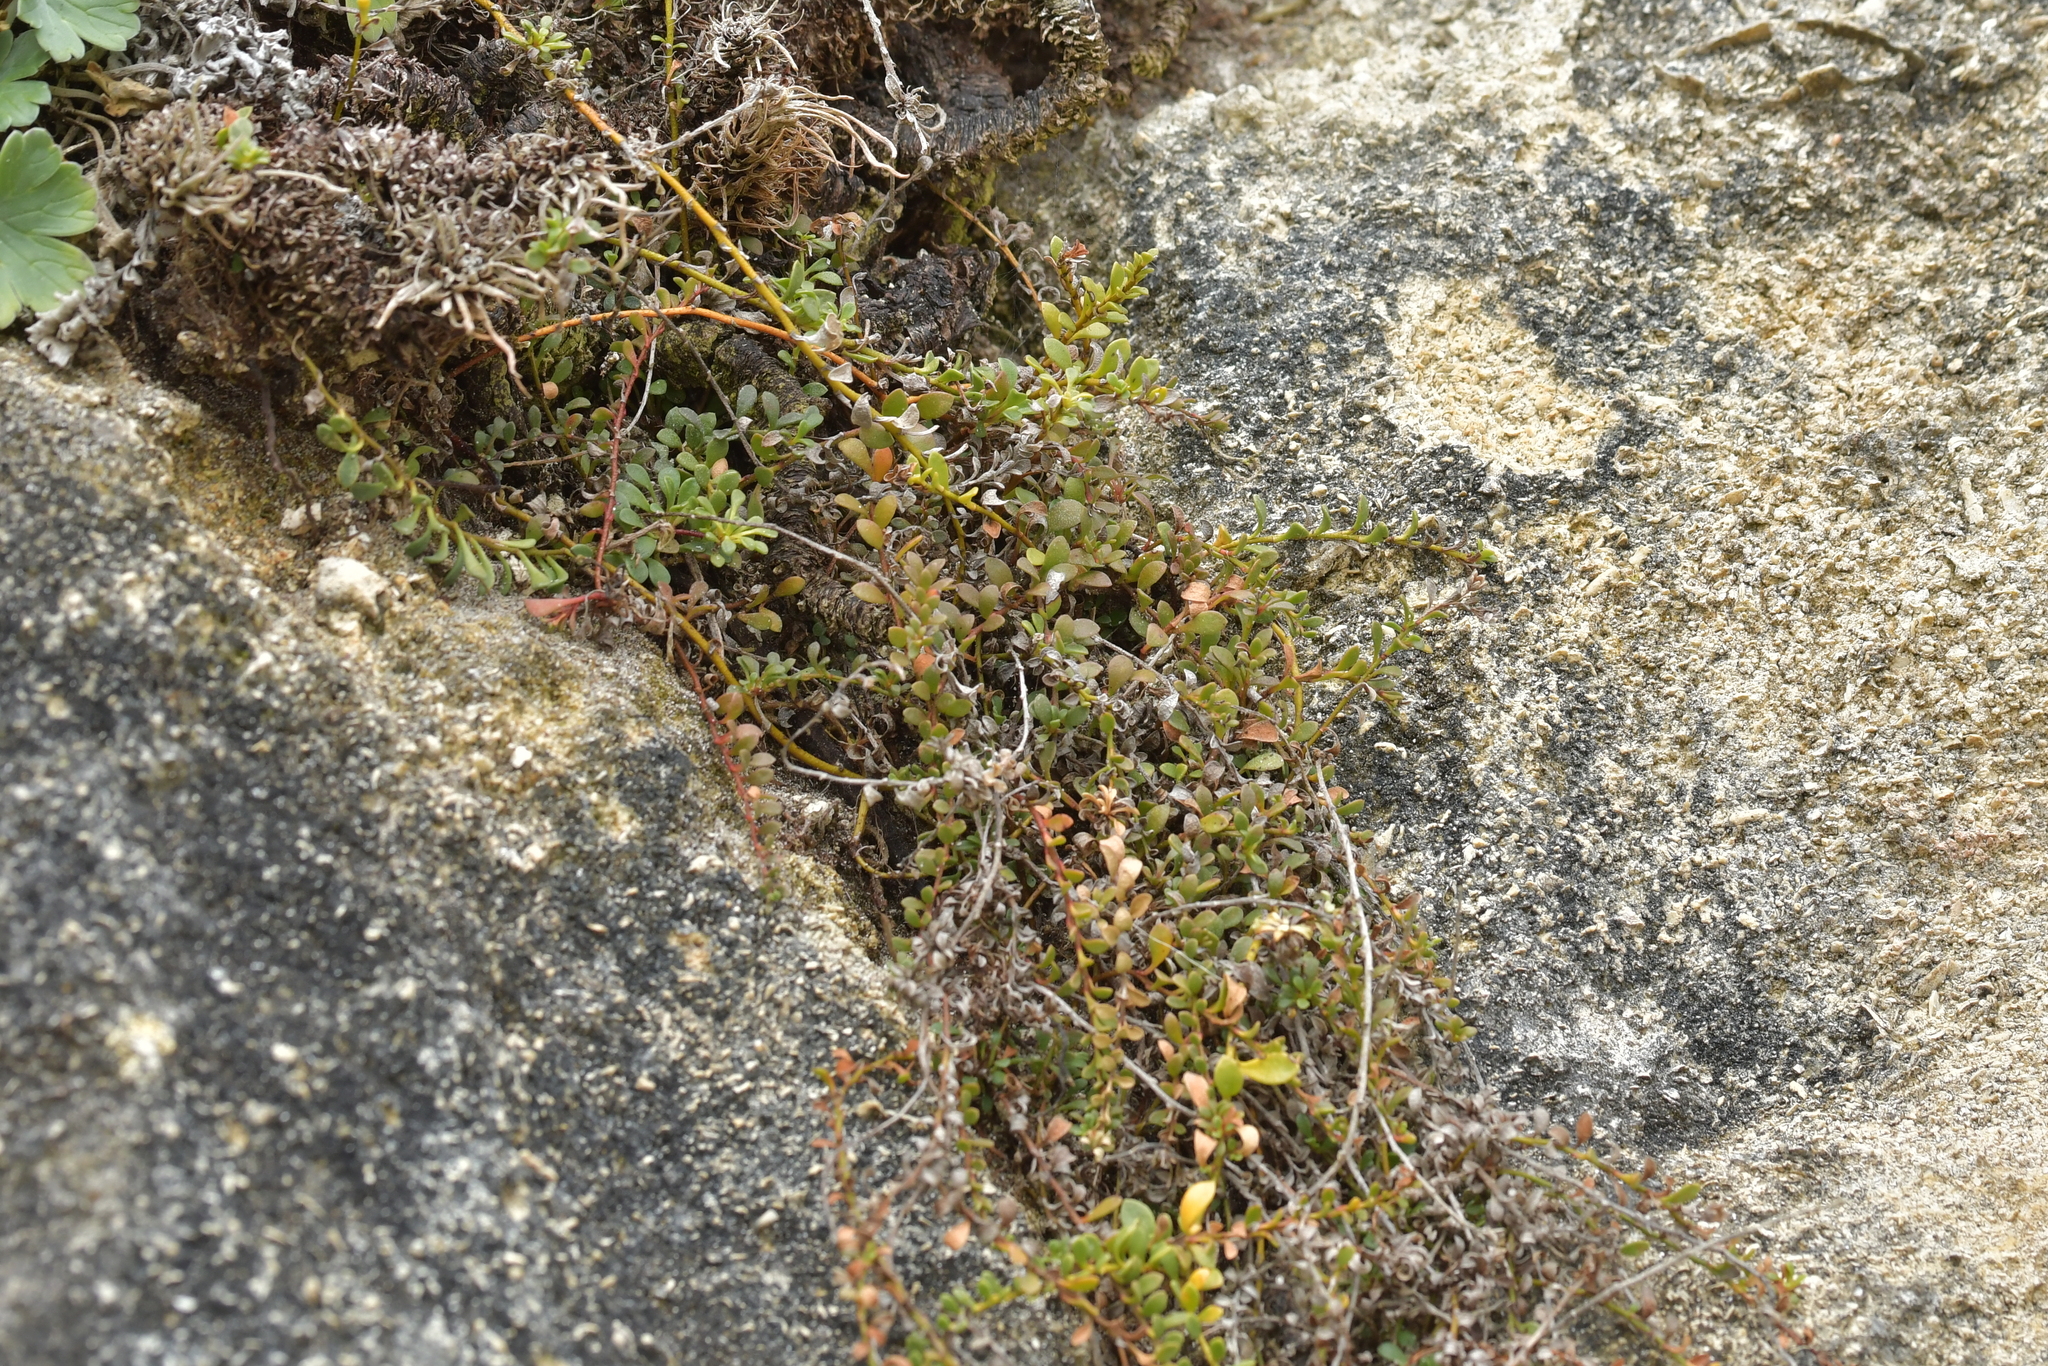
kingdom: Plantae
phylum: Tracheophyta
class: Magnoliopsida
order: Ericales
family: Primulaceae
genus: Samolus
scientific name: Samolus repens
